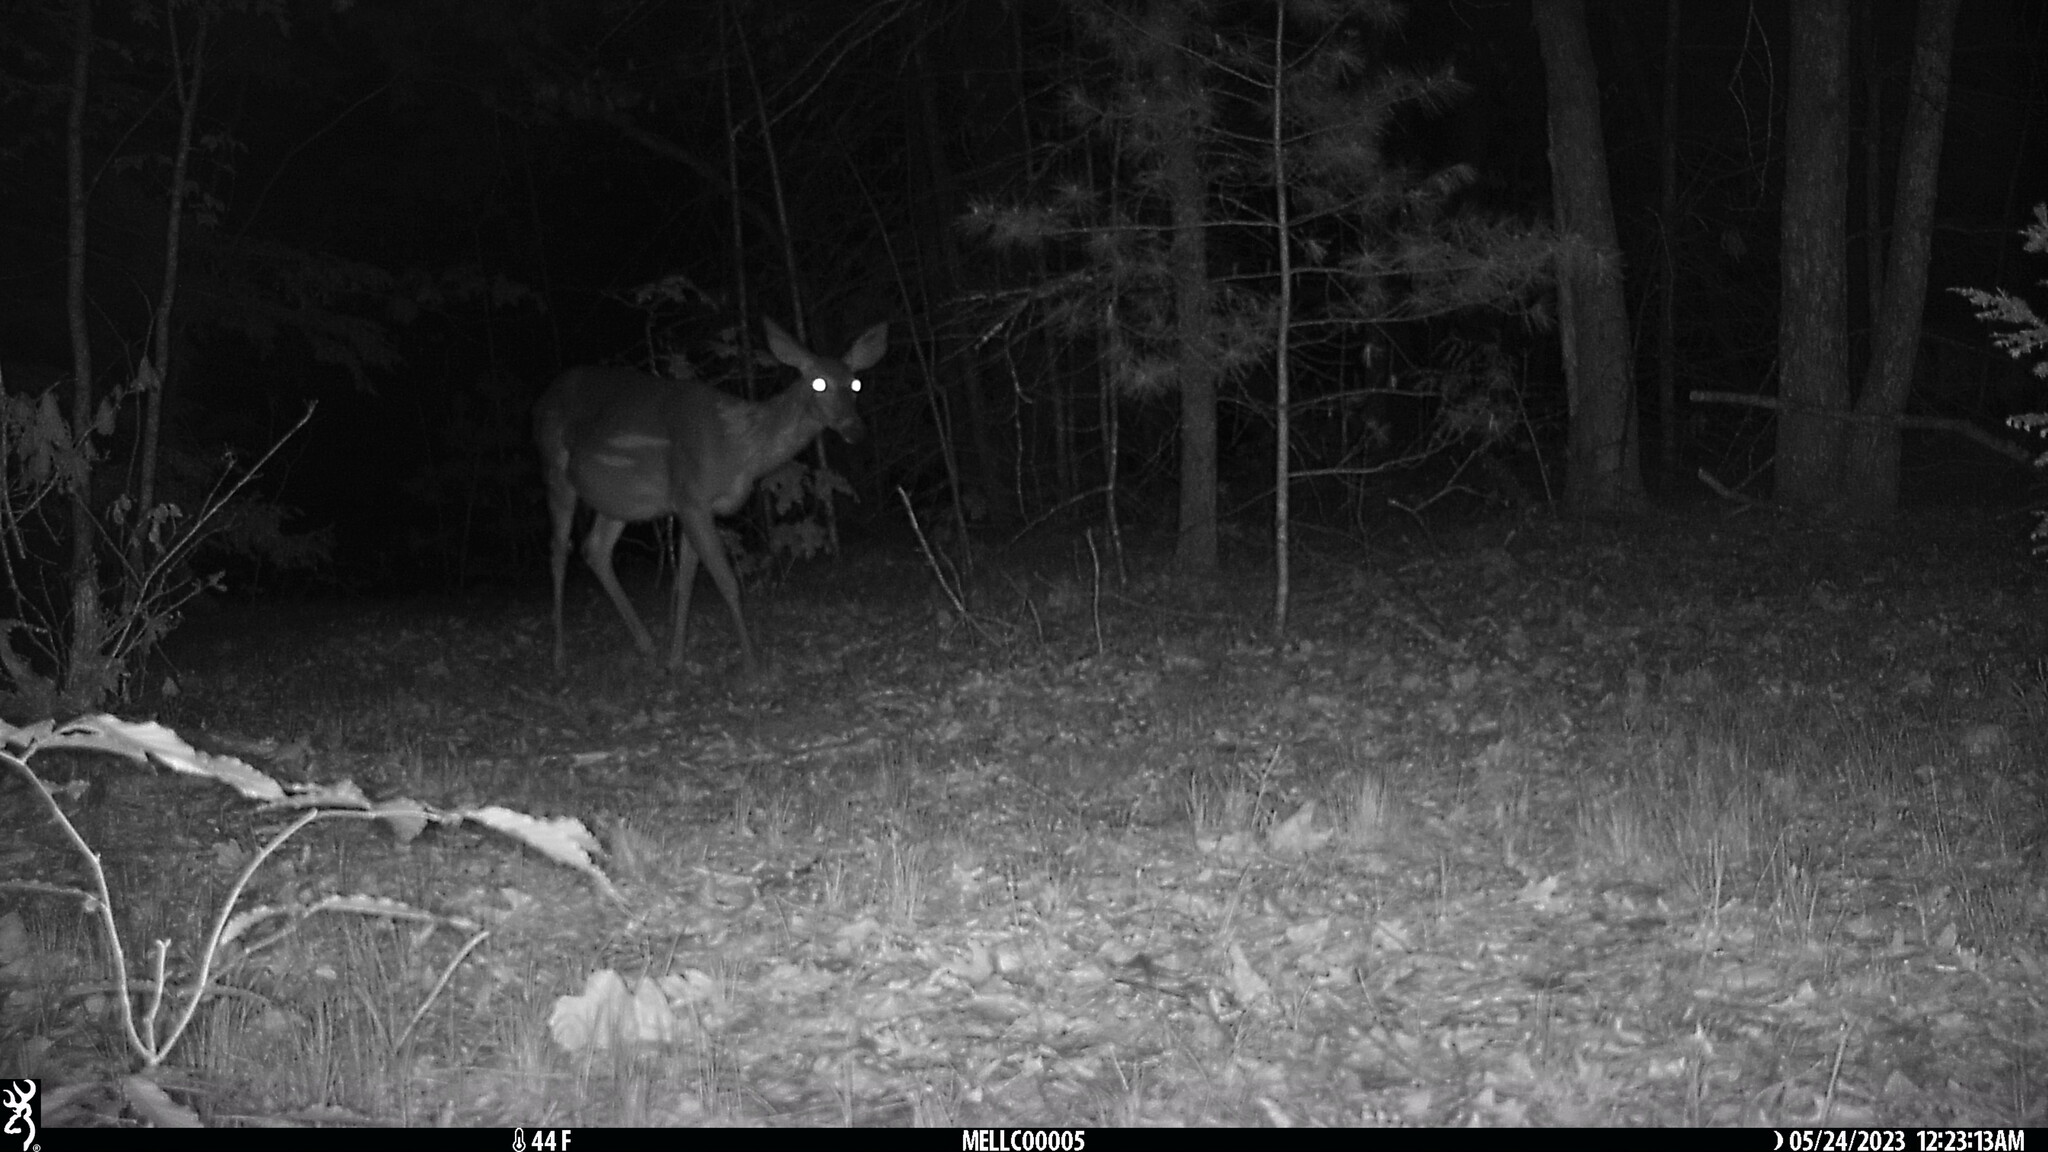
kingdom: Animalia
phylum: Chordata
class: Mammalia
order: Artiodactyla
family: Cervidae
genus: Odocoileus
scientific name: Odocoileus virginianus
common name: White-tailed deer
